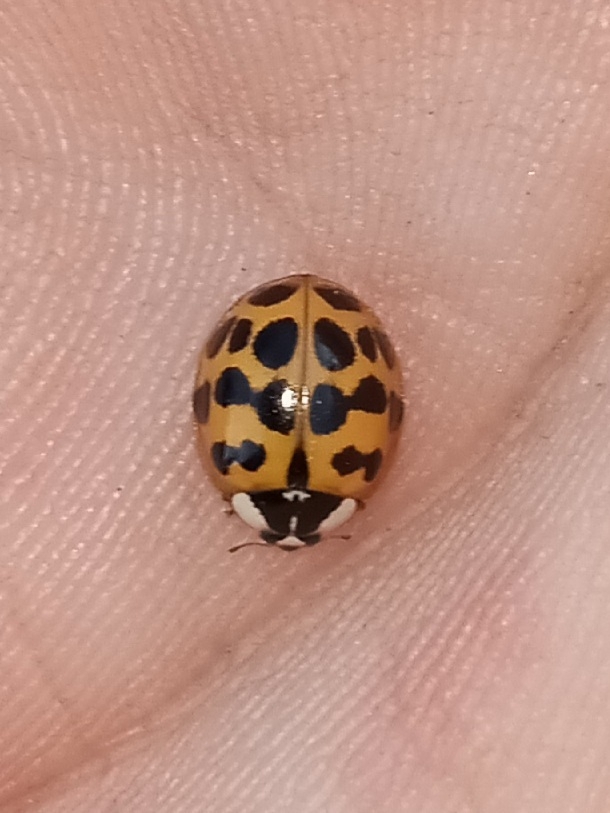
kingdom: Animalia
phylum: Arthropoda
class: Insecta
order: Coleoptera
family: Coccinellidae
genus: Harmonia
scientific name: Harmonia axyridis
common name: Harlequin ladybird
